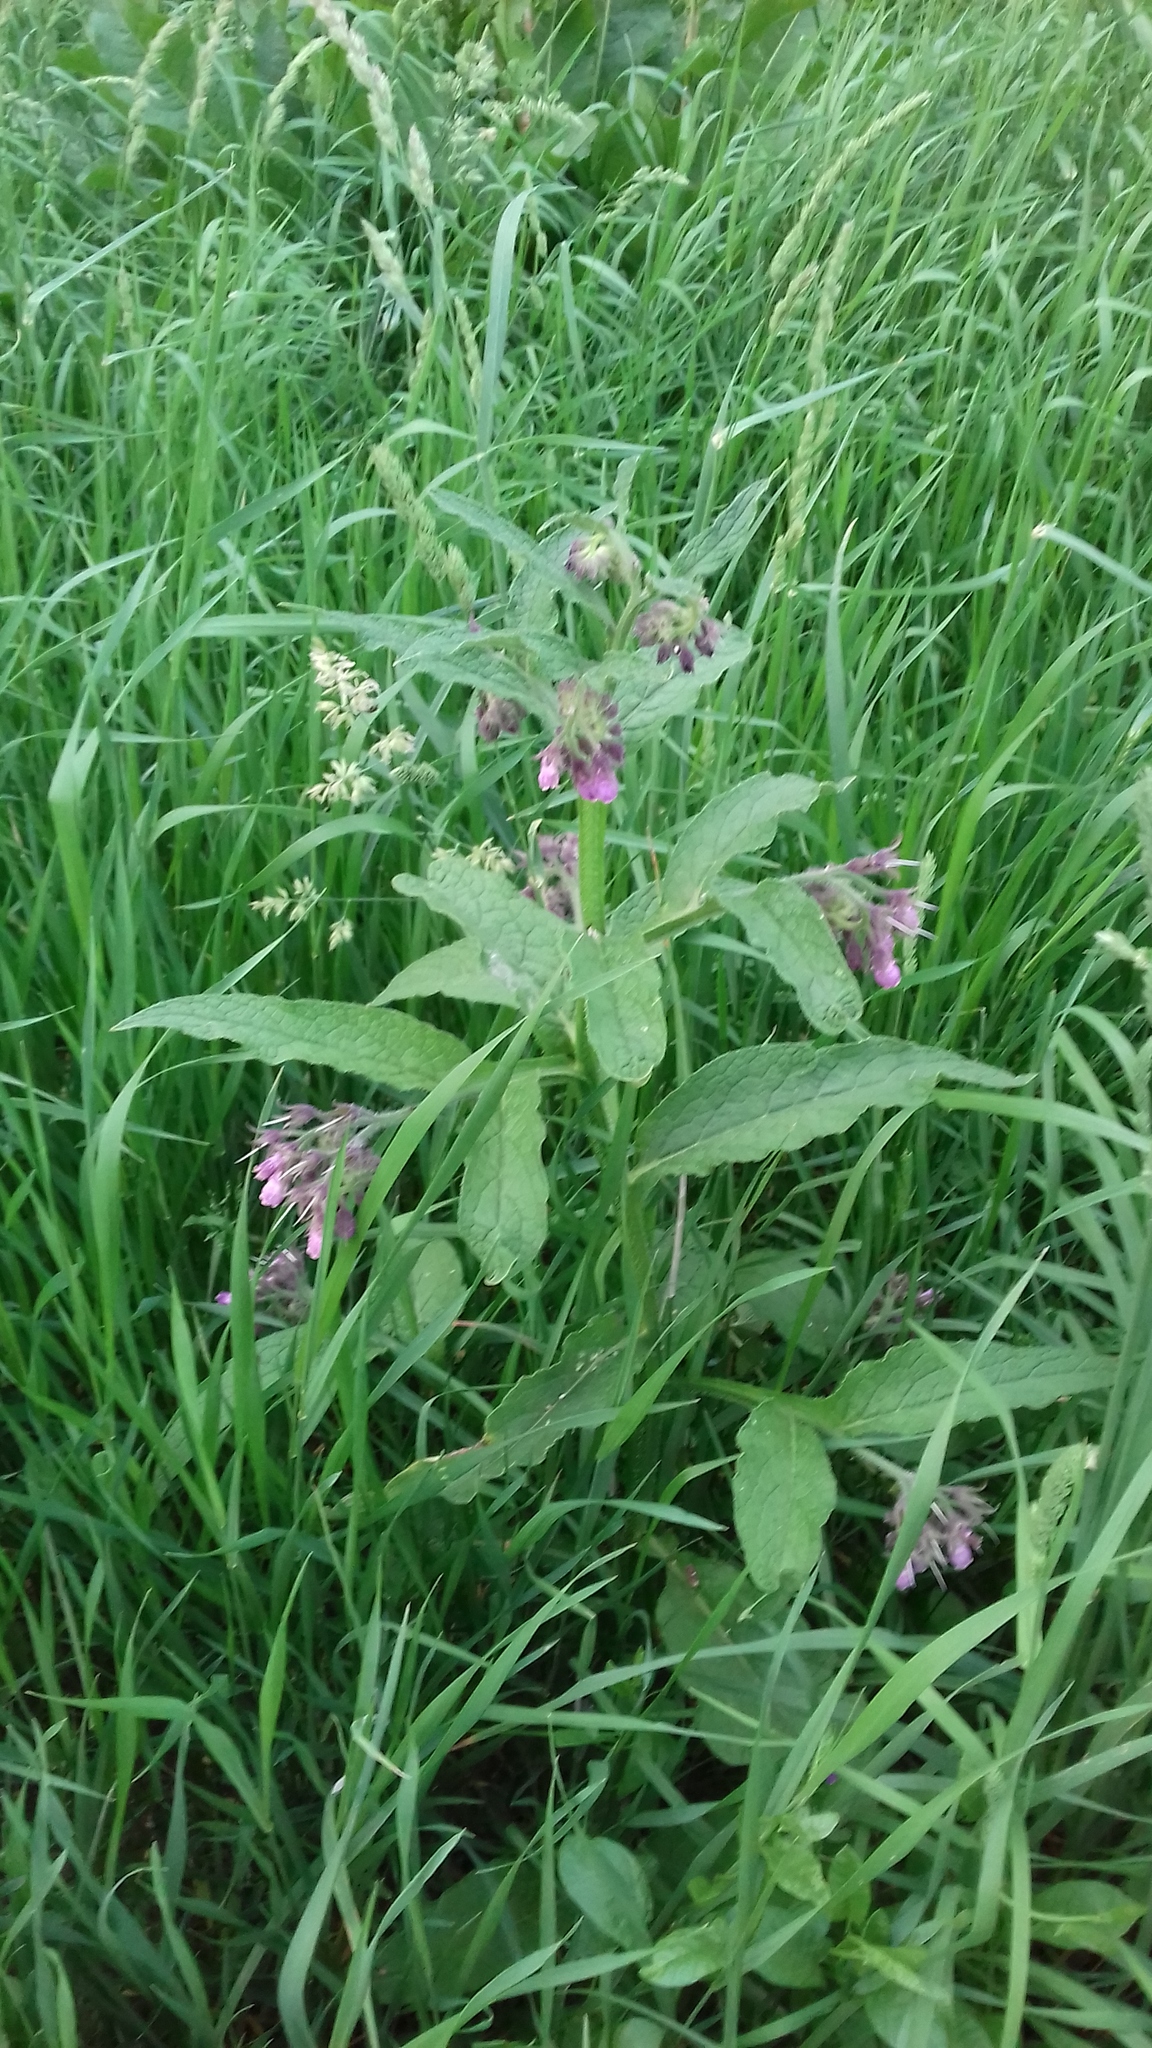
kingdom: Plantae
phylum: Tracheophyta
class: Magnoliopsida
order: Boraginales
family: Boraginaceae
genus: Symphytum
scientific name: Symphytum officinale
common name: Common comfrey
